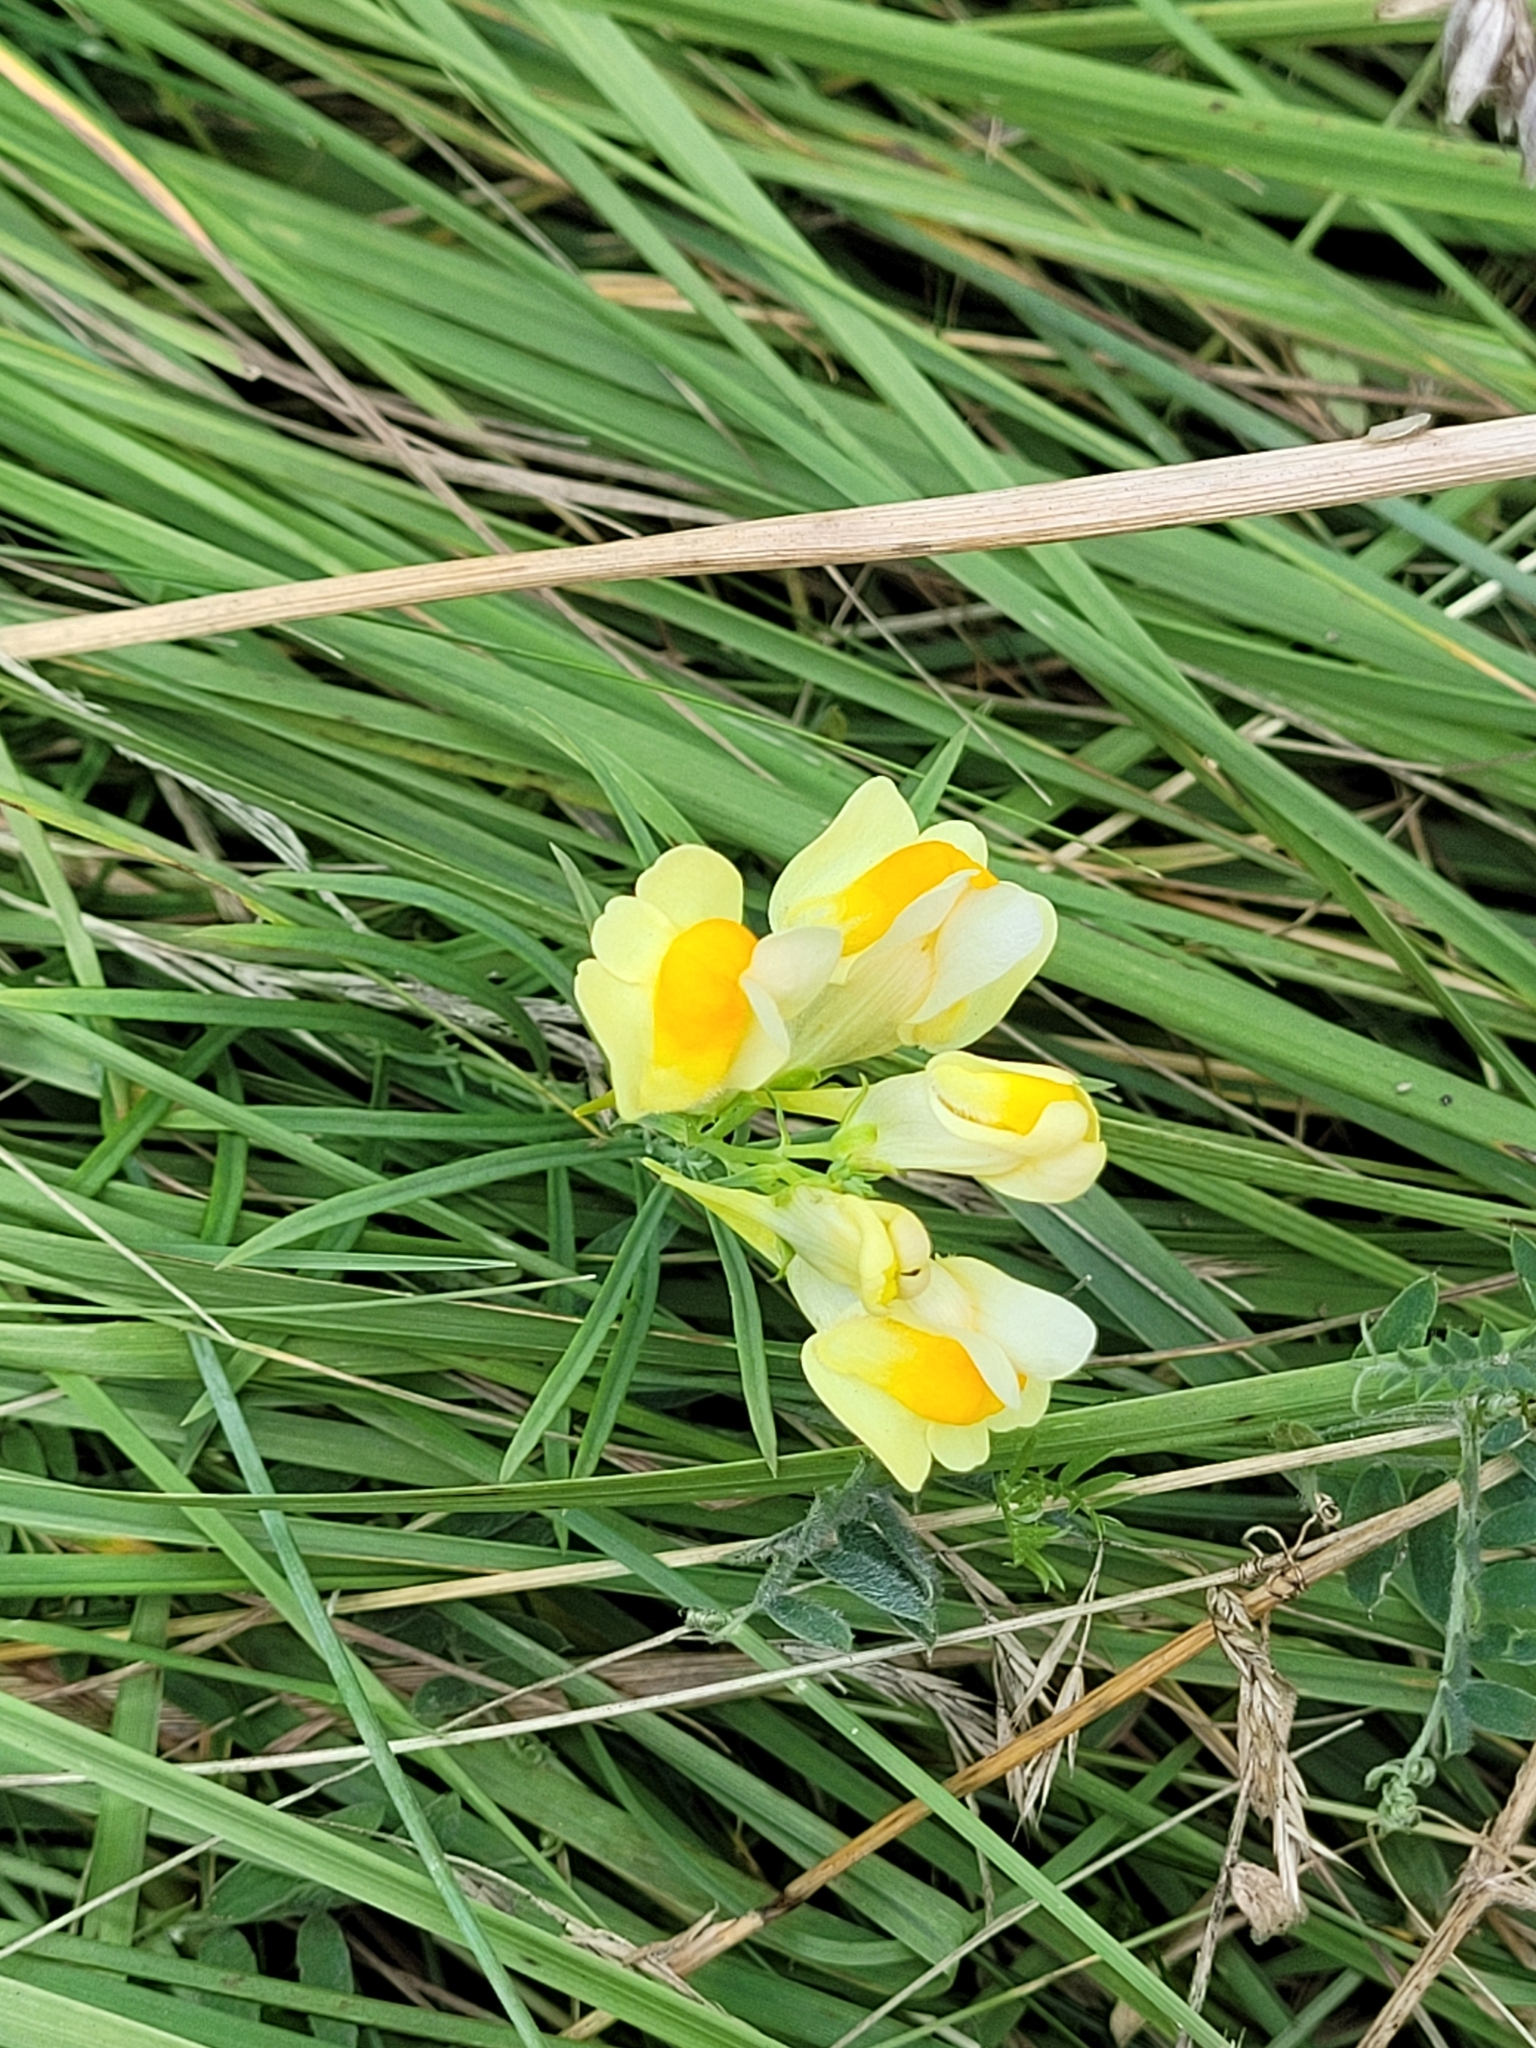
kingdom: Plantae
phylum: Tracheophyta
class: Magnoliopsida
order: Lamiales
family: Plantaginaceae
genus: Linaria
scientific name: Linaria vulgaris
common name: Butter and eggs
